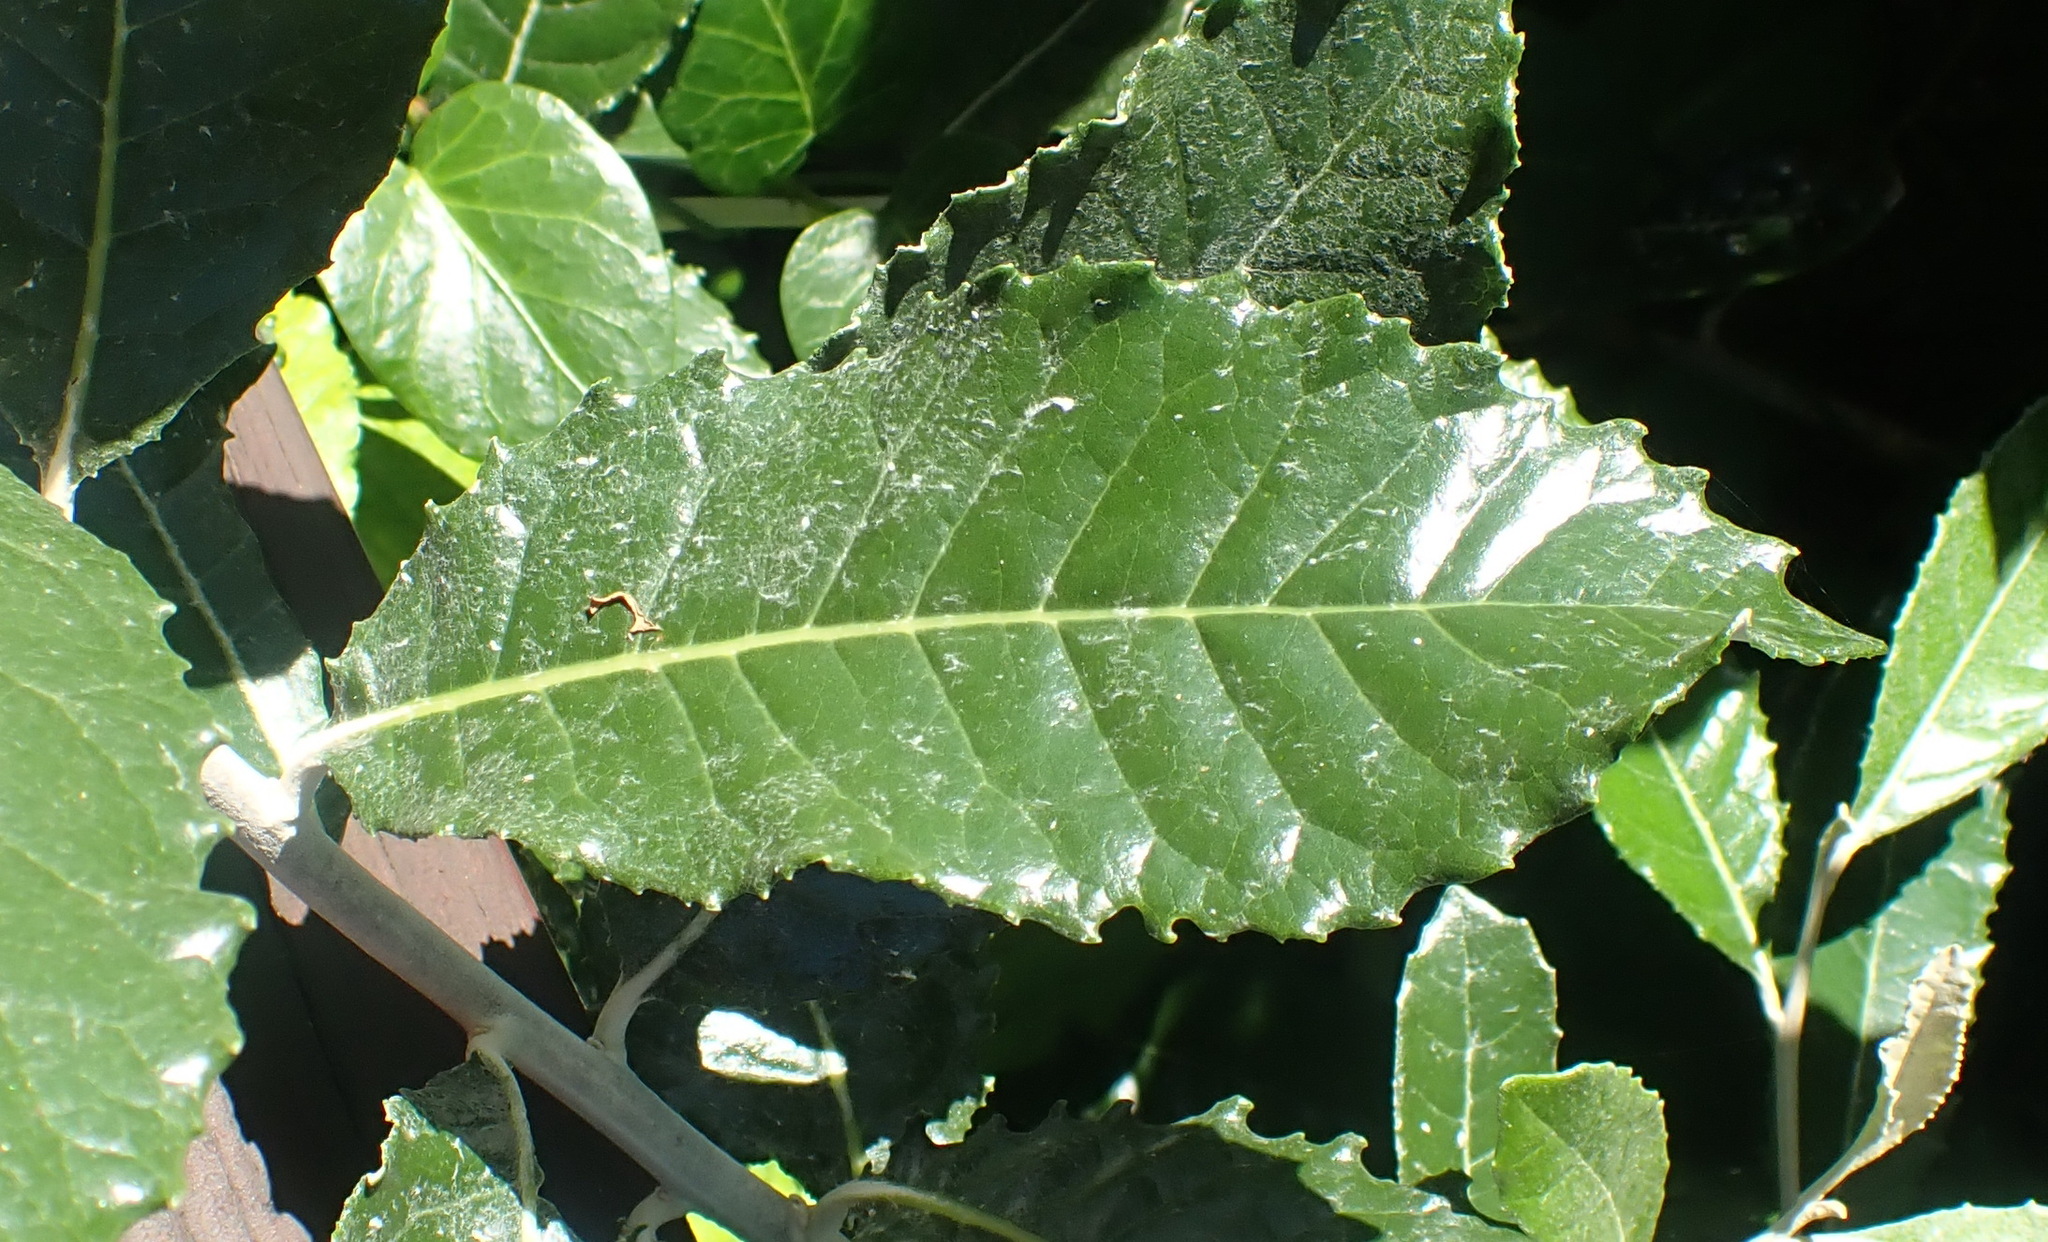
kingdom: Plantae
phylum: Tracheophyta
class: Magnoliopsida
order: Asterales
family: Asteraceae
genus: Brachylaena
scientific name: Brachylaena discolor
